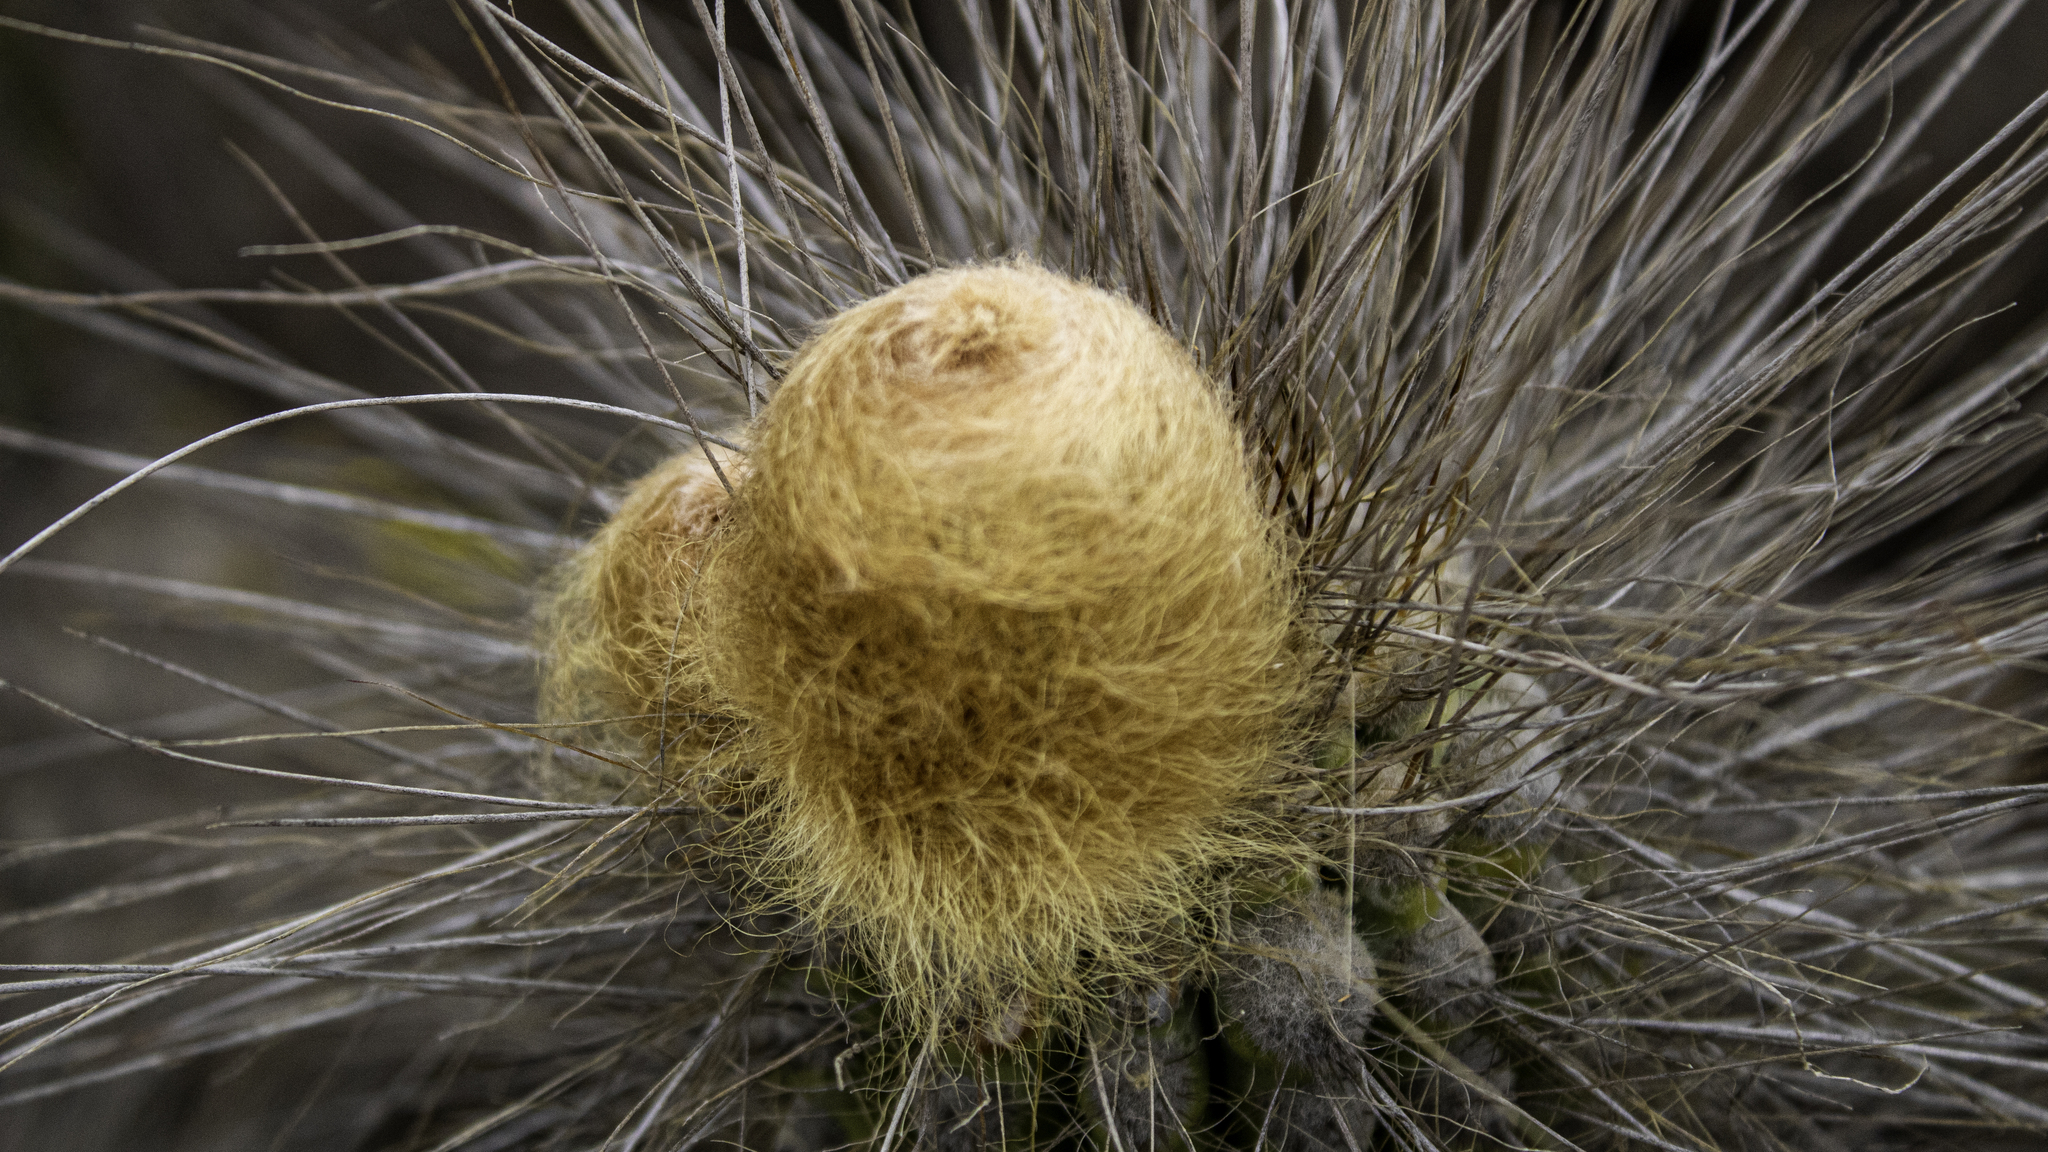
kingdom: Plantae
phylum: Tracheophyta
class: Magnoliopsida
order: Caryophyllales
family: Cactaceae
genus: Eulychnia
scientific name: Eulychnia breviflora
